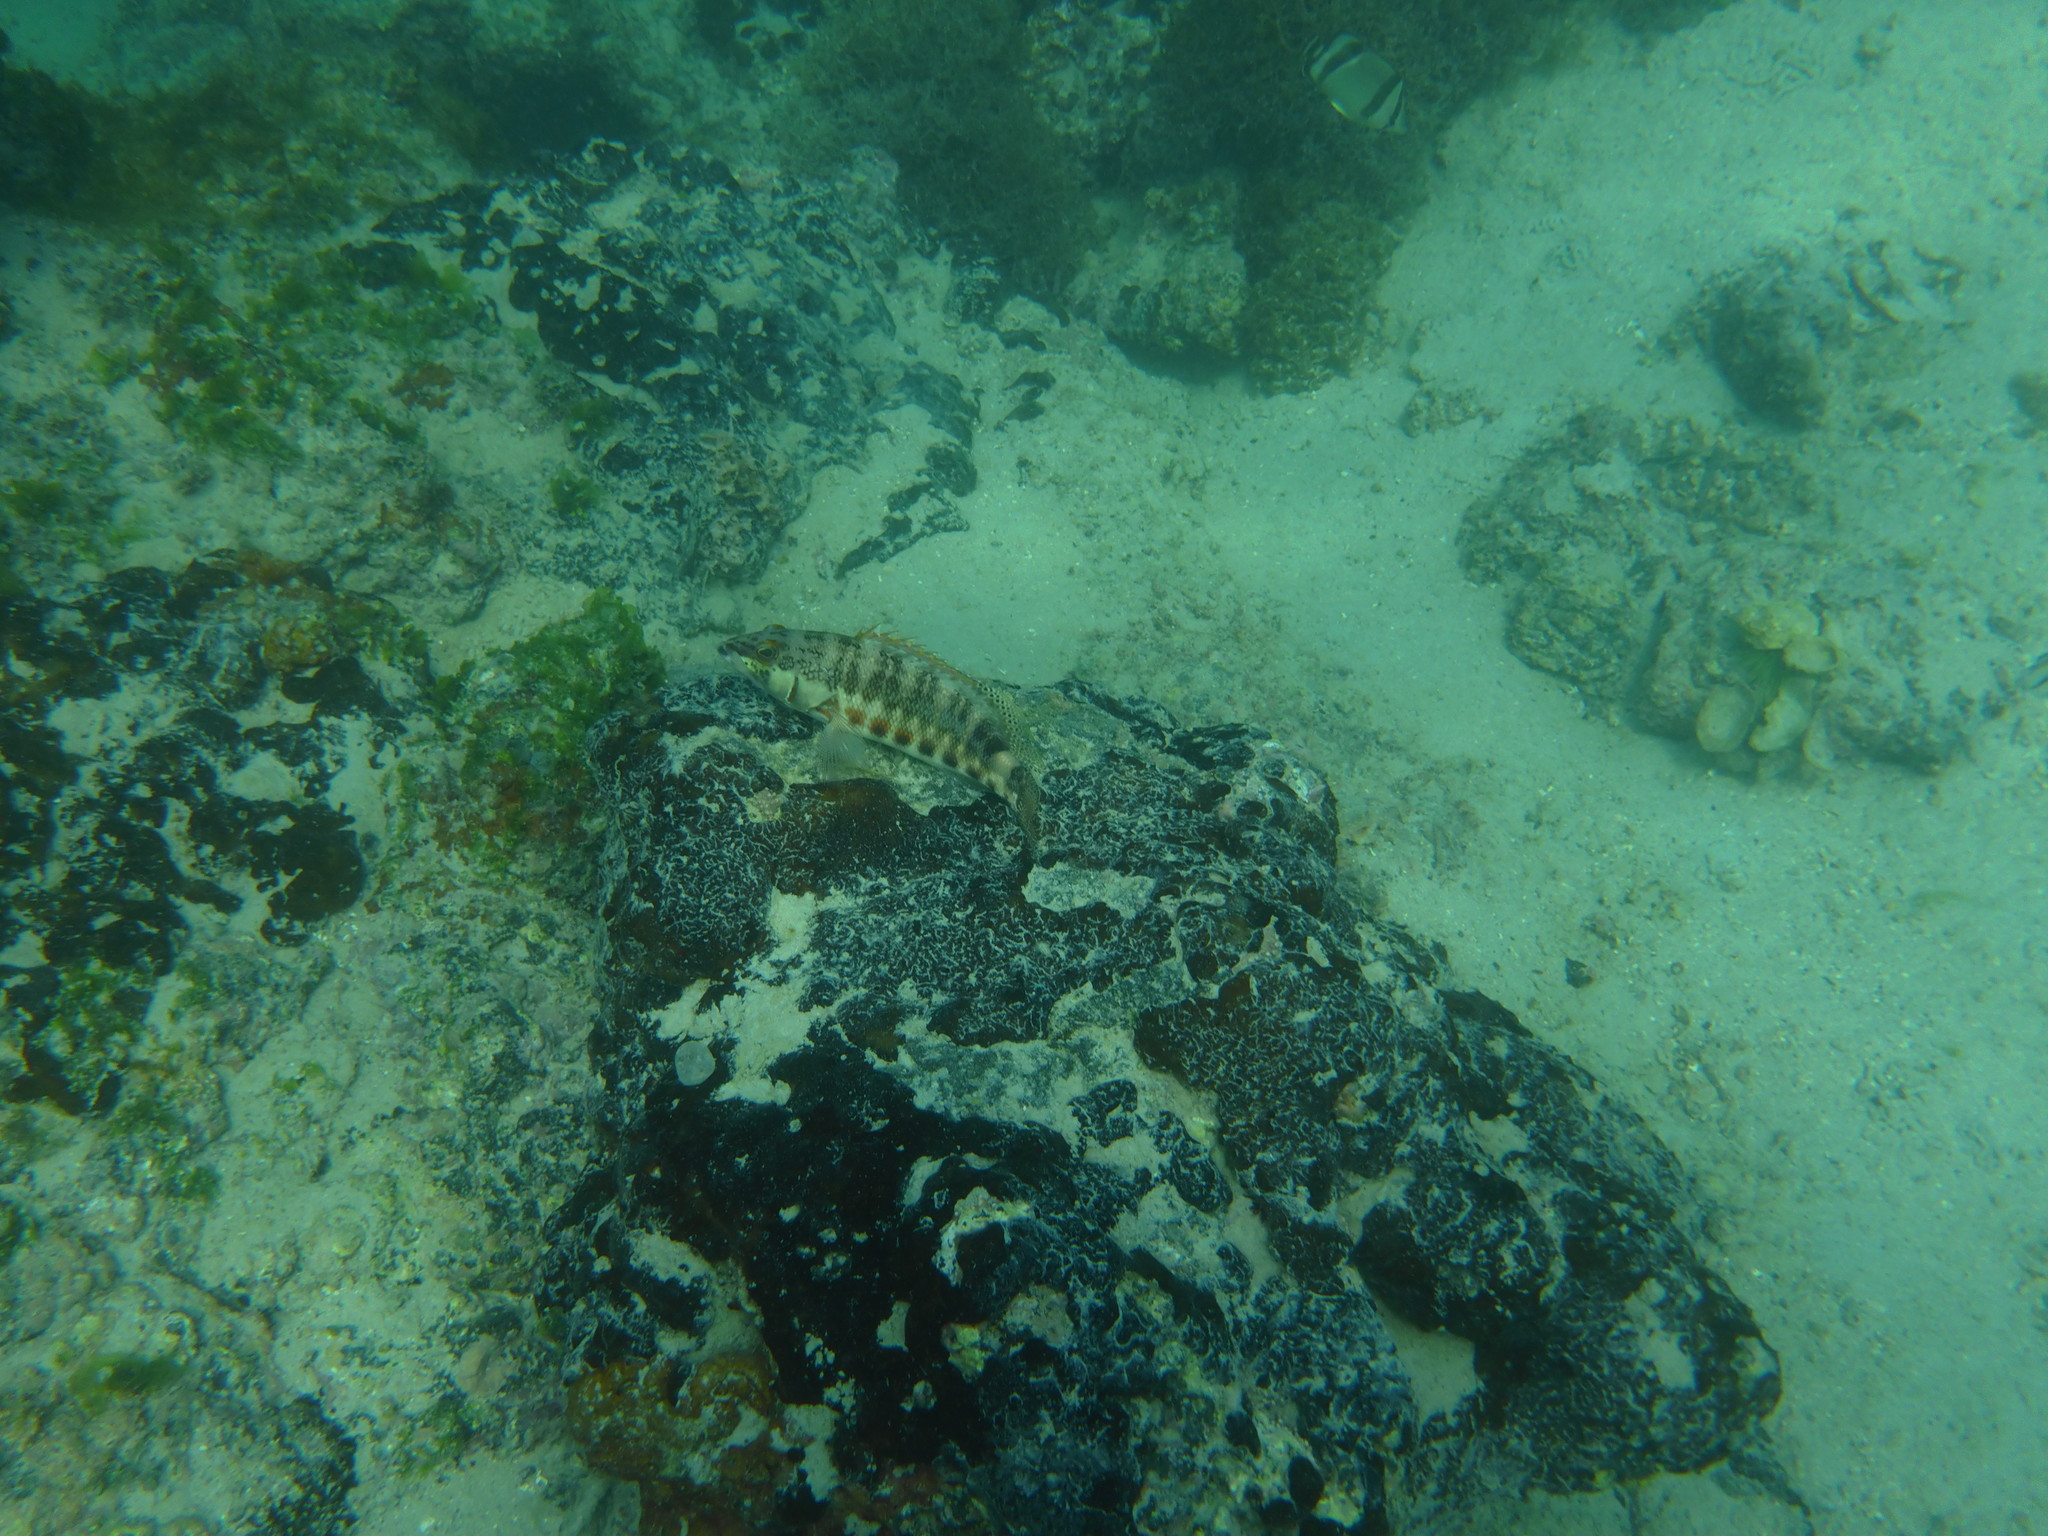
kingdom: Animalia
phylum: Chordata
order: Perciformes
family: Serranidae
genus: Serranus
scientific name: Serranus psittacinus
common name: Barred serrano
